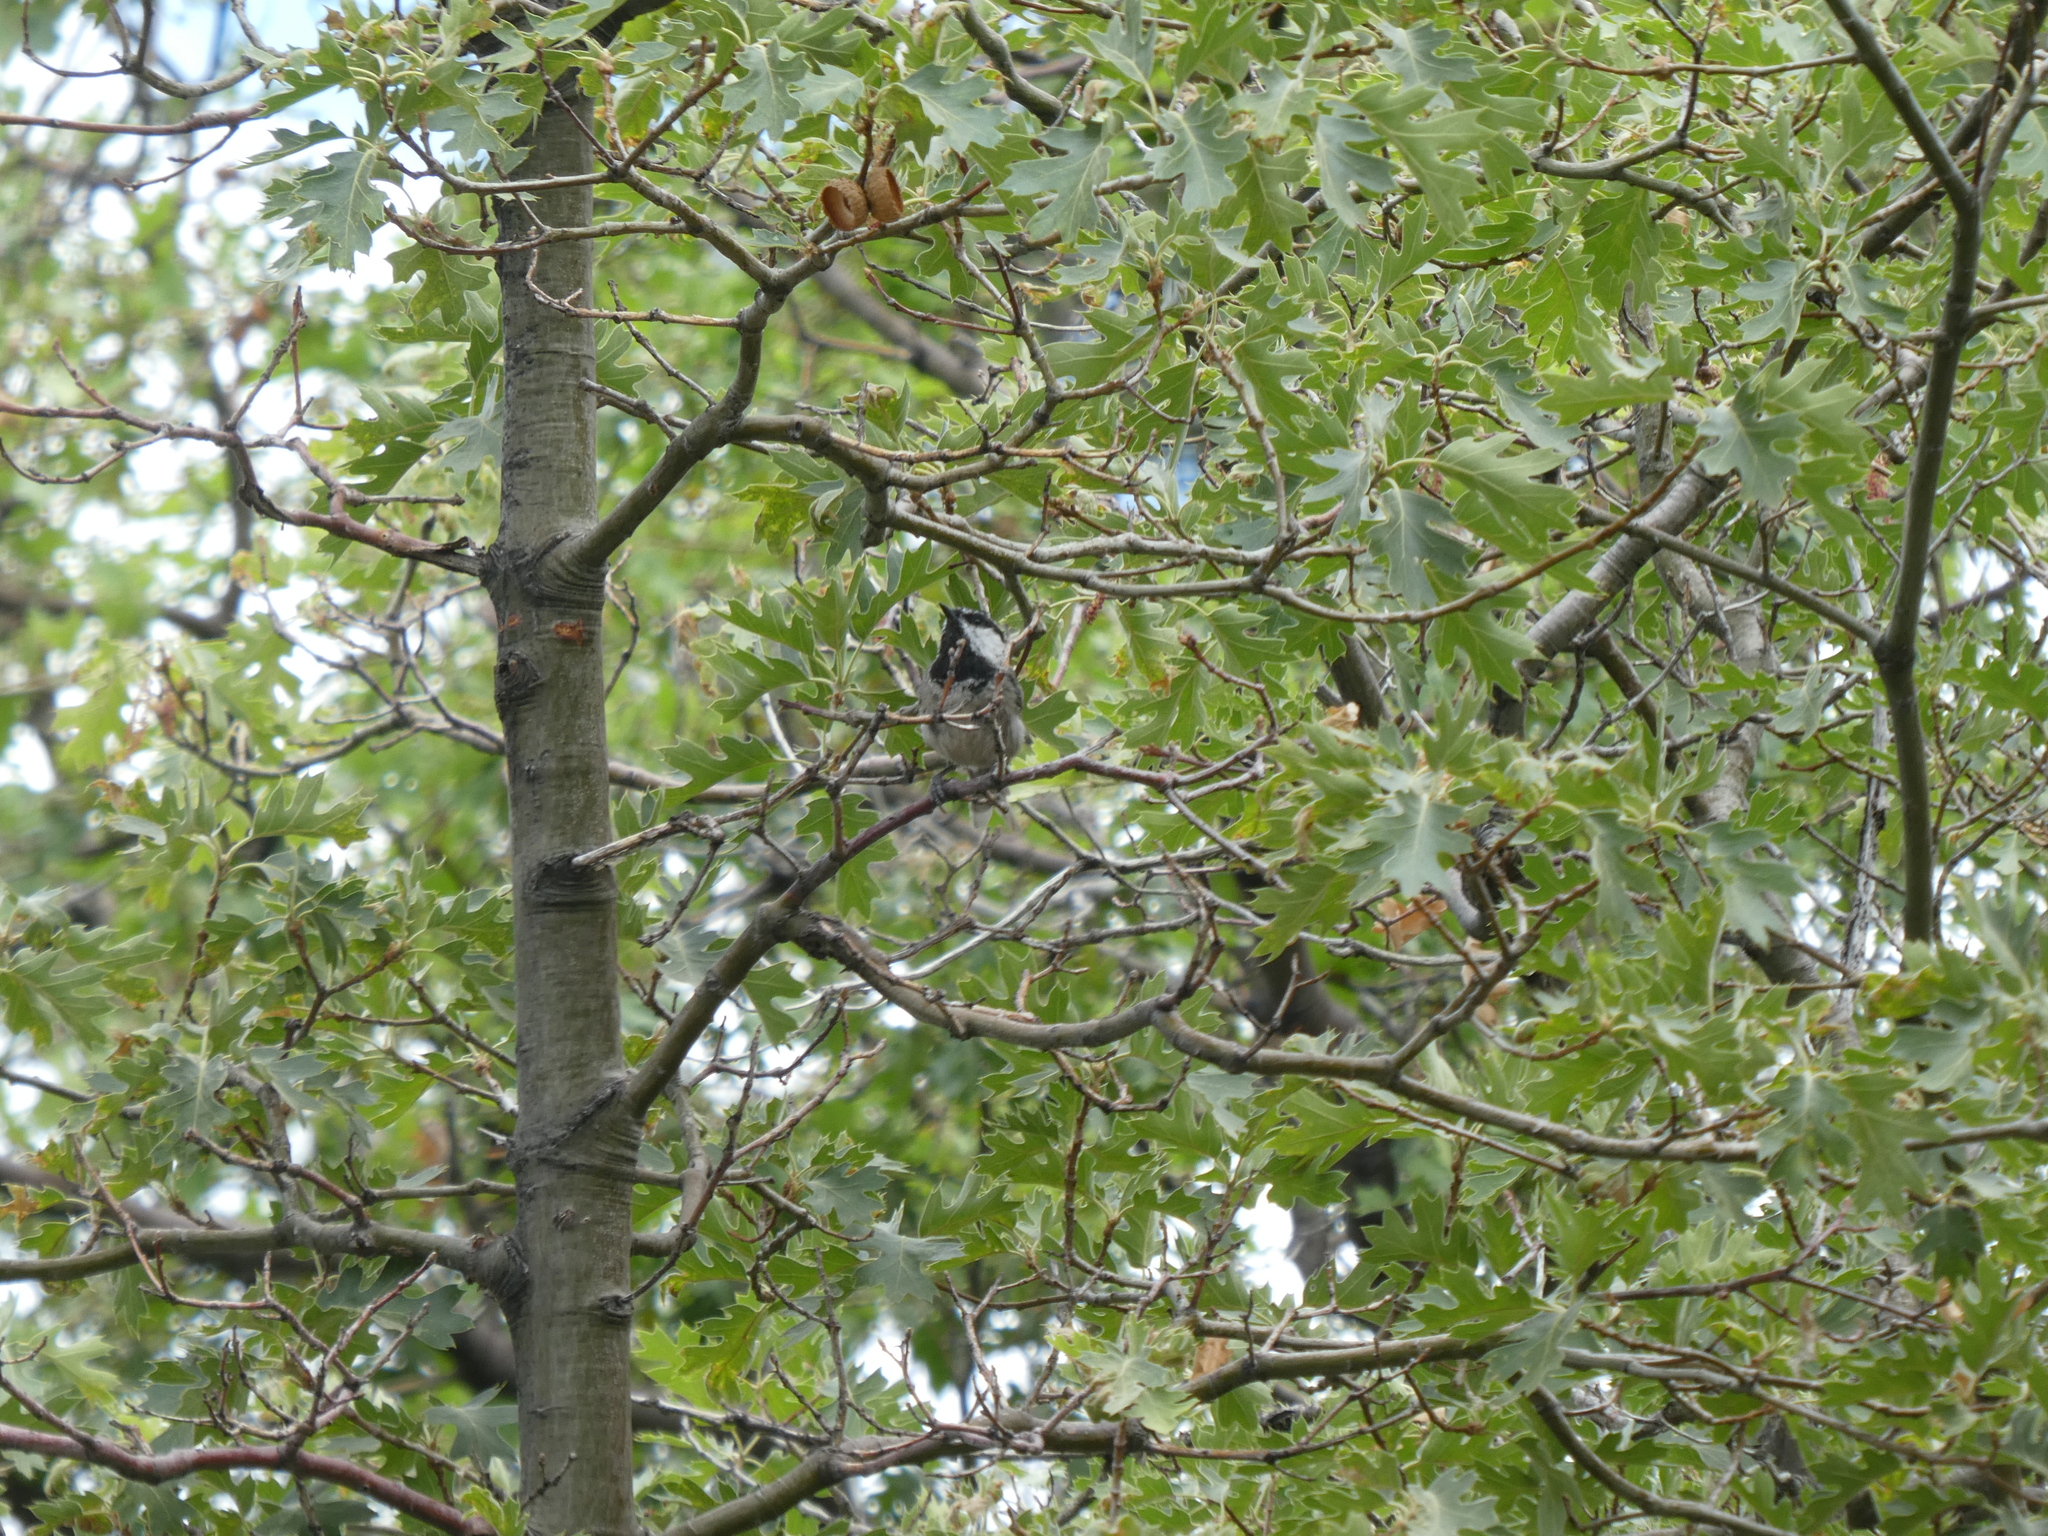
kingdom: Animalia
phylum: Chordata
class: Aves
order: Passeriformes
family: Paridae
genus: Poecile
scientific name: Poecile gambeli
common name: Mountain chickadee
